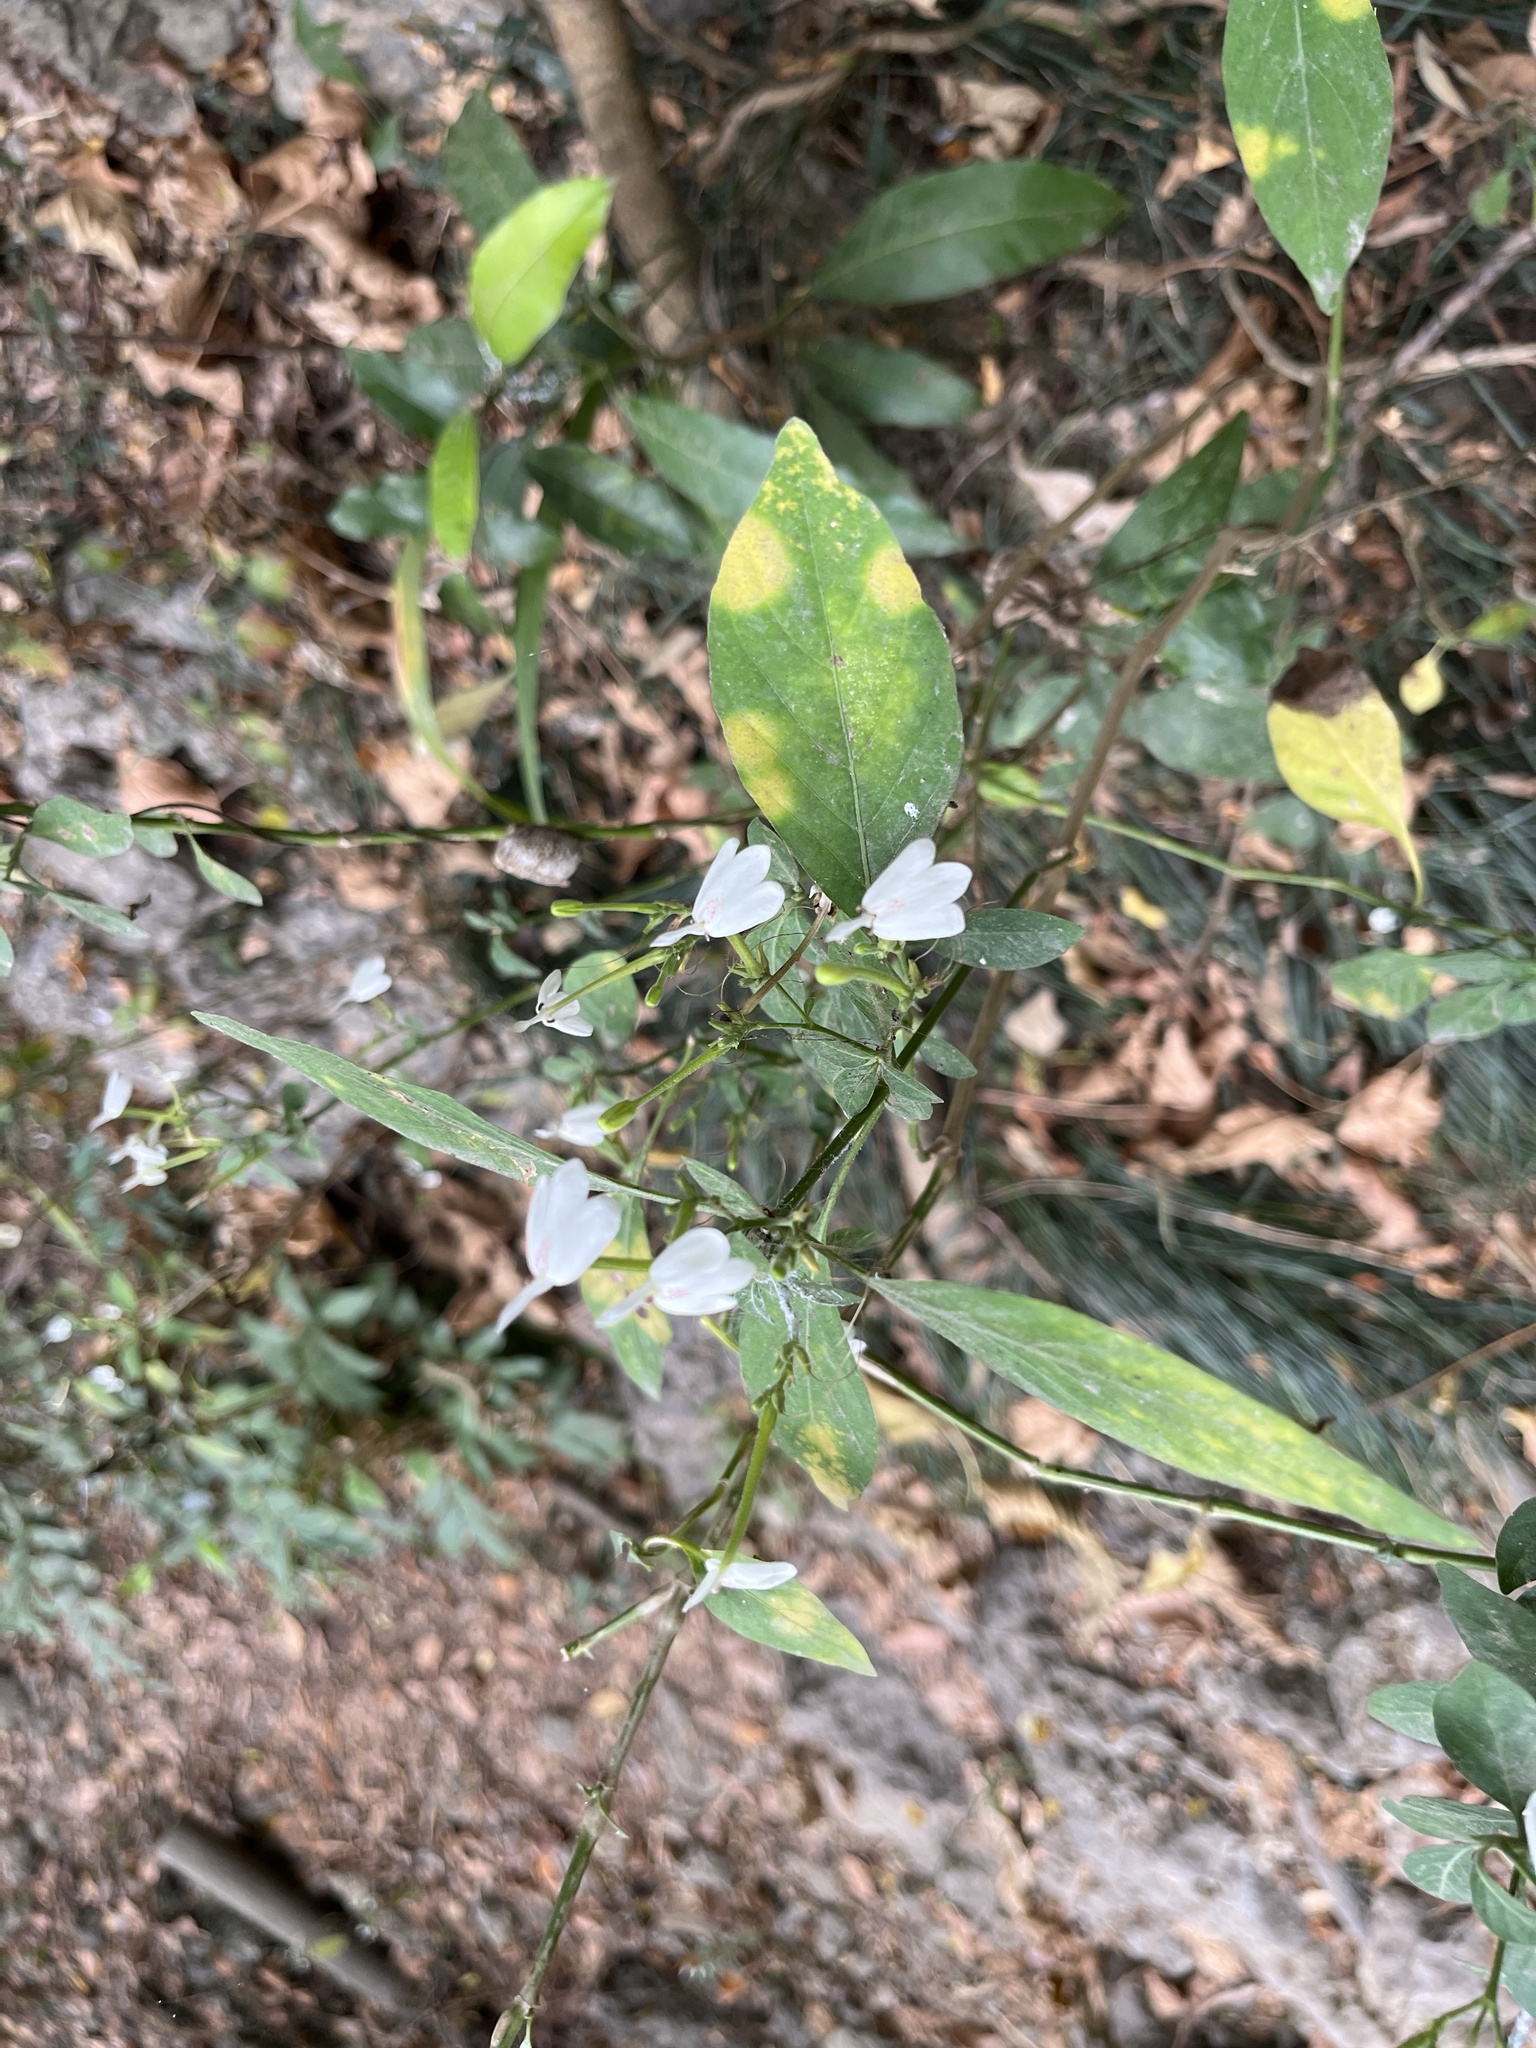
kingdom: Plantae
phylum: Tracheophyta
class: Magnoliopsida
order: Lamiales
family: Acanthaceae
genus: Rhinacanthus
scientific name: Rhinacanthus nasutus
